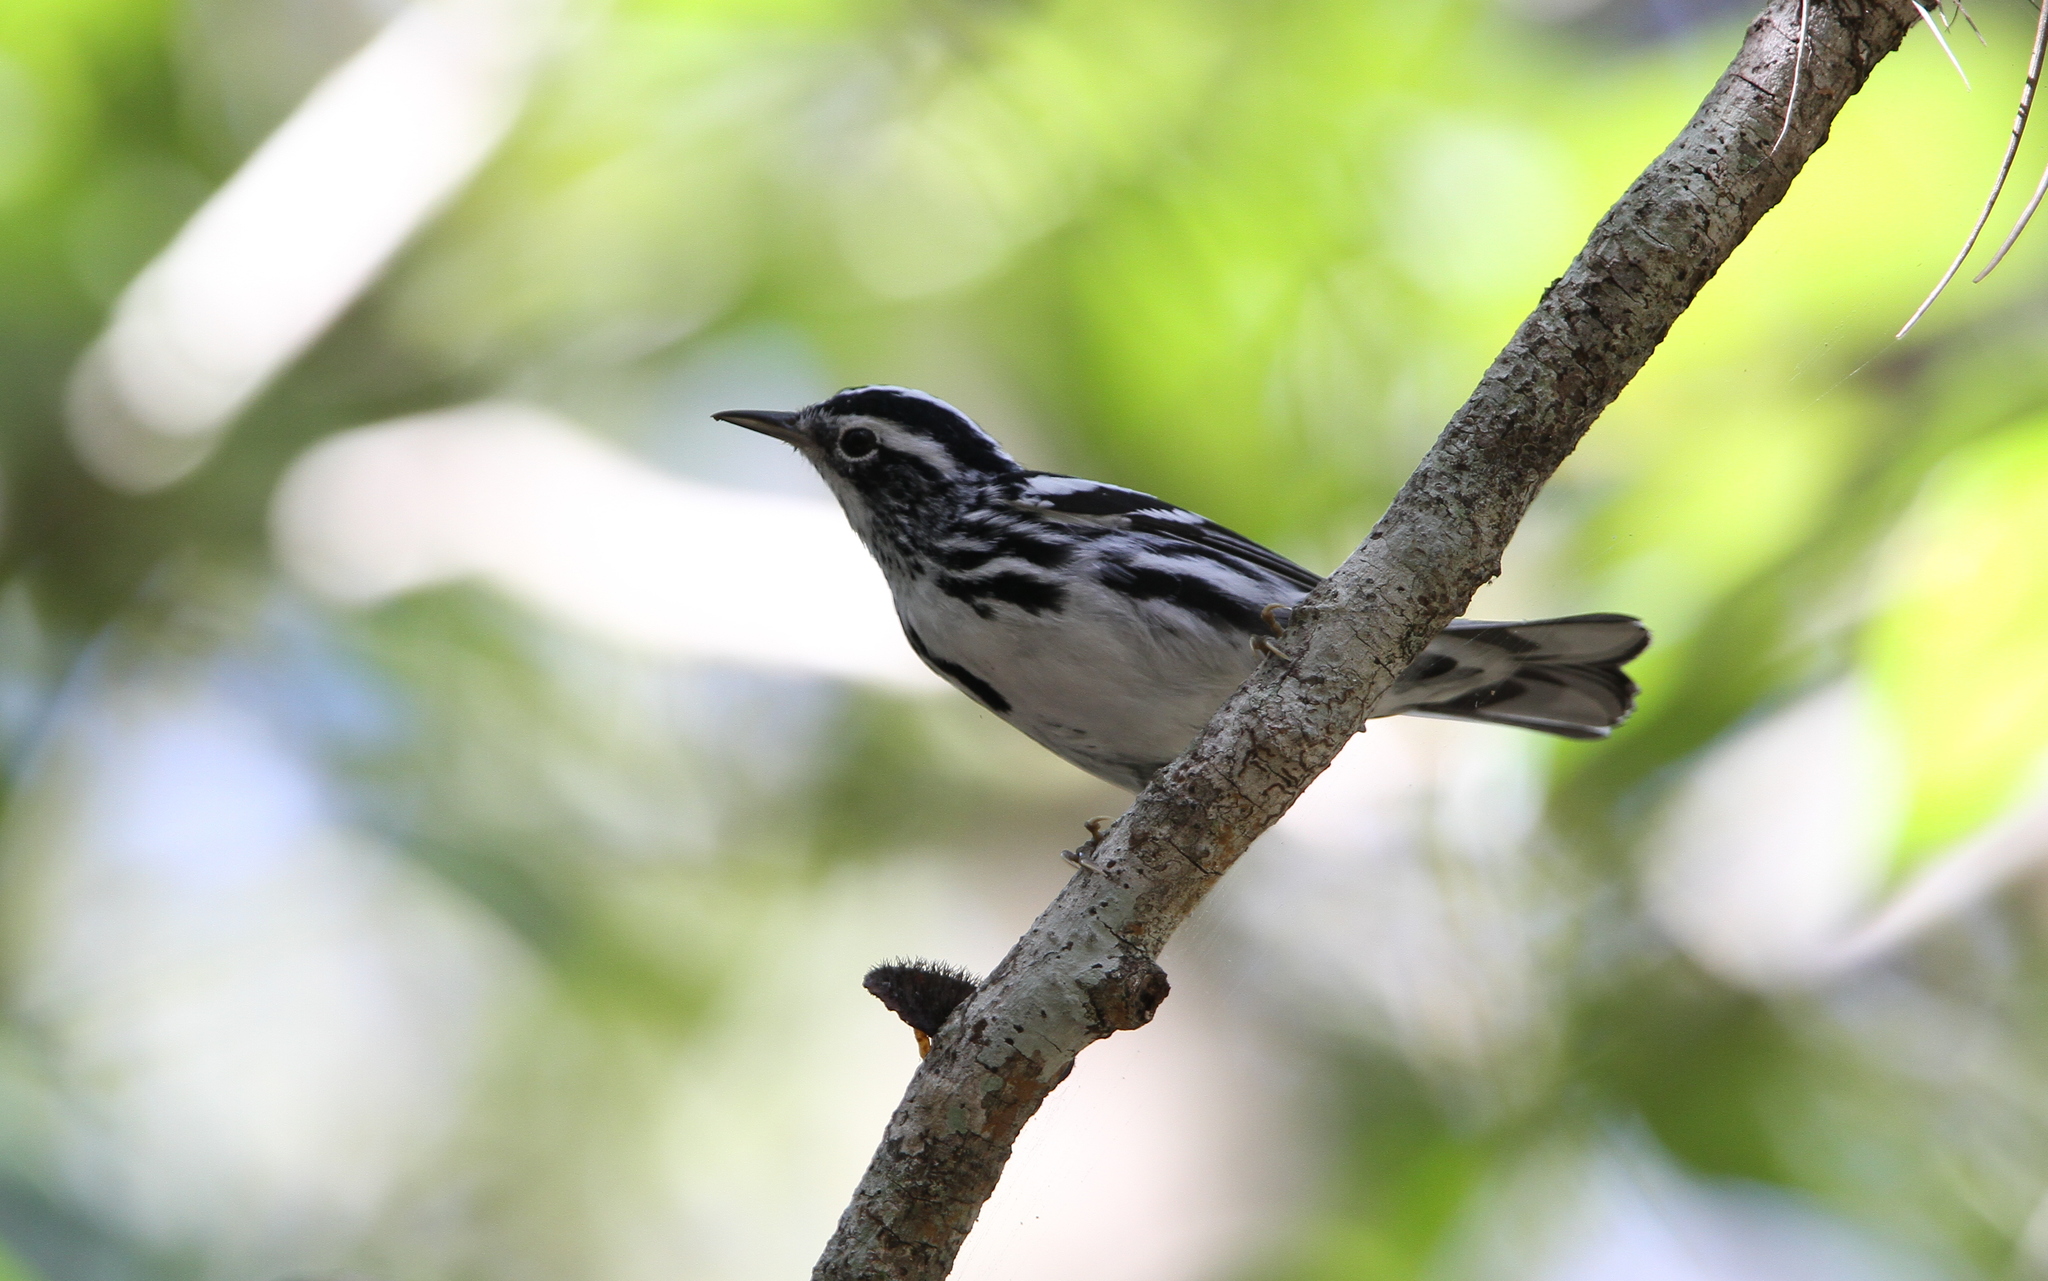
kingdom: Animalia
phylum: Chordata
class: Aves
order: Passeriformes
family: Parulidae
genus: Mniotilta
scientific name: Mniotilta varia
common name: Black-and-white warbler
